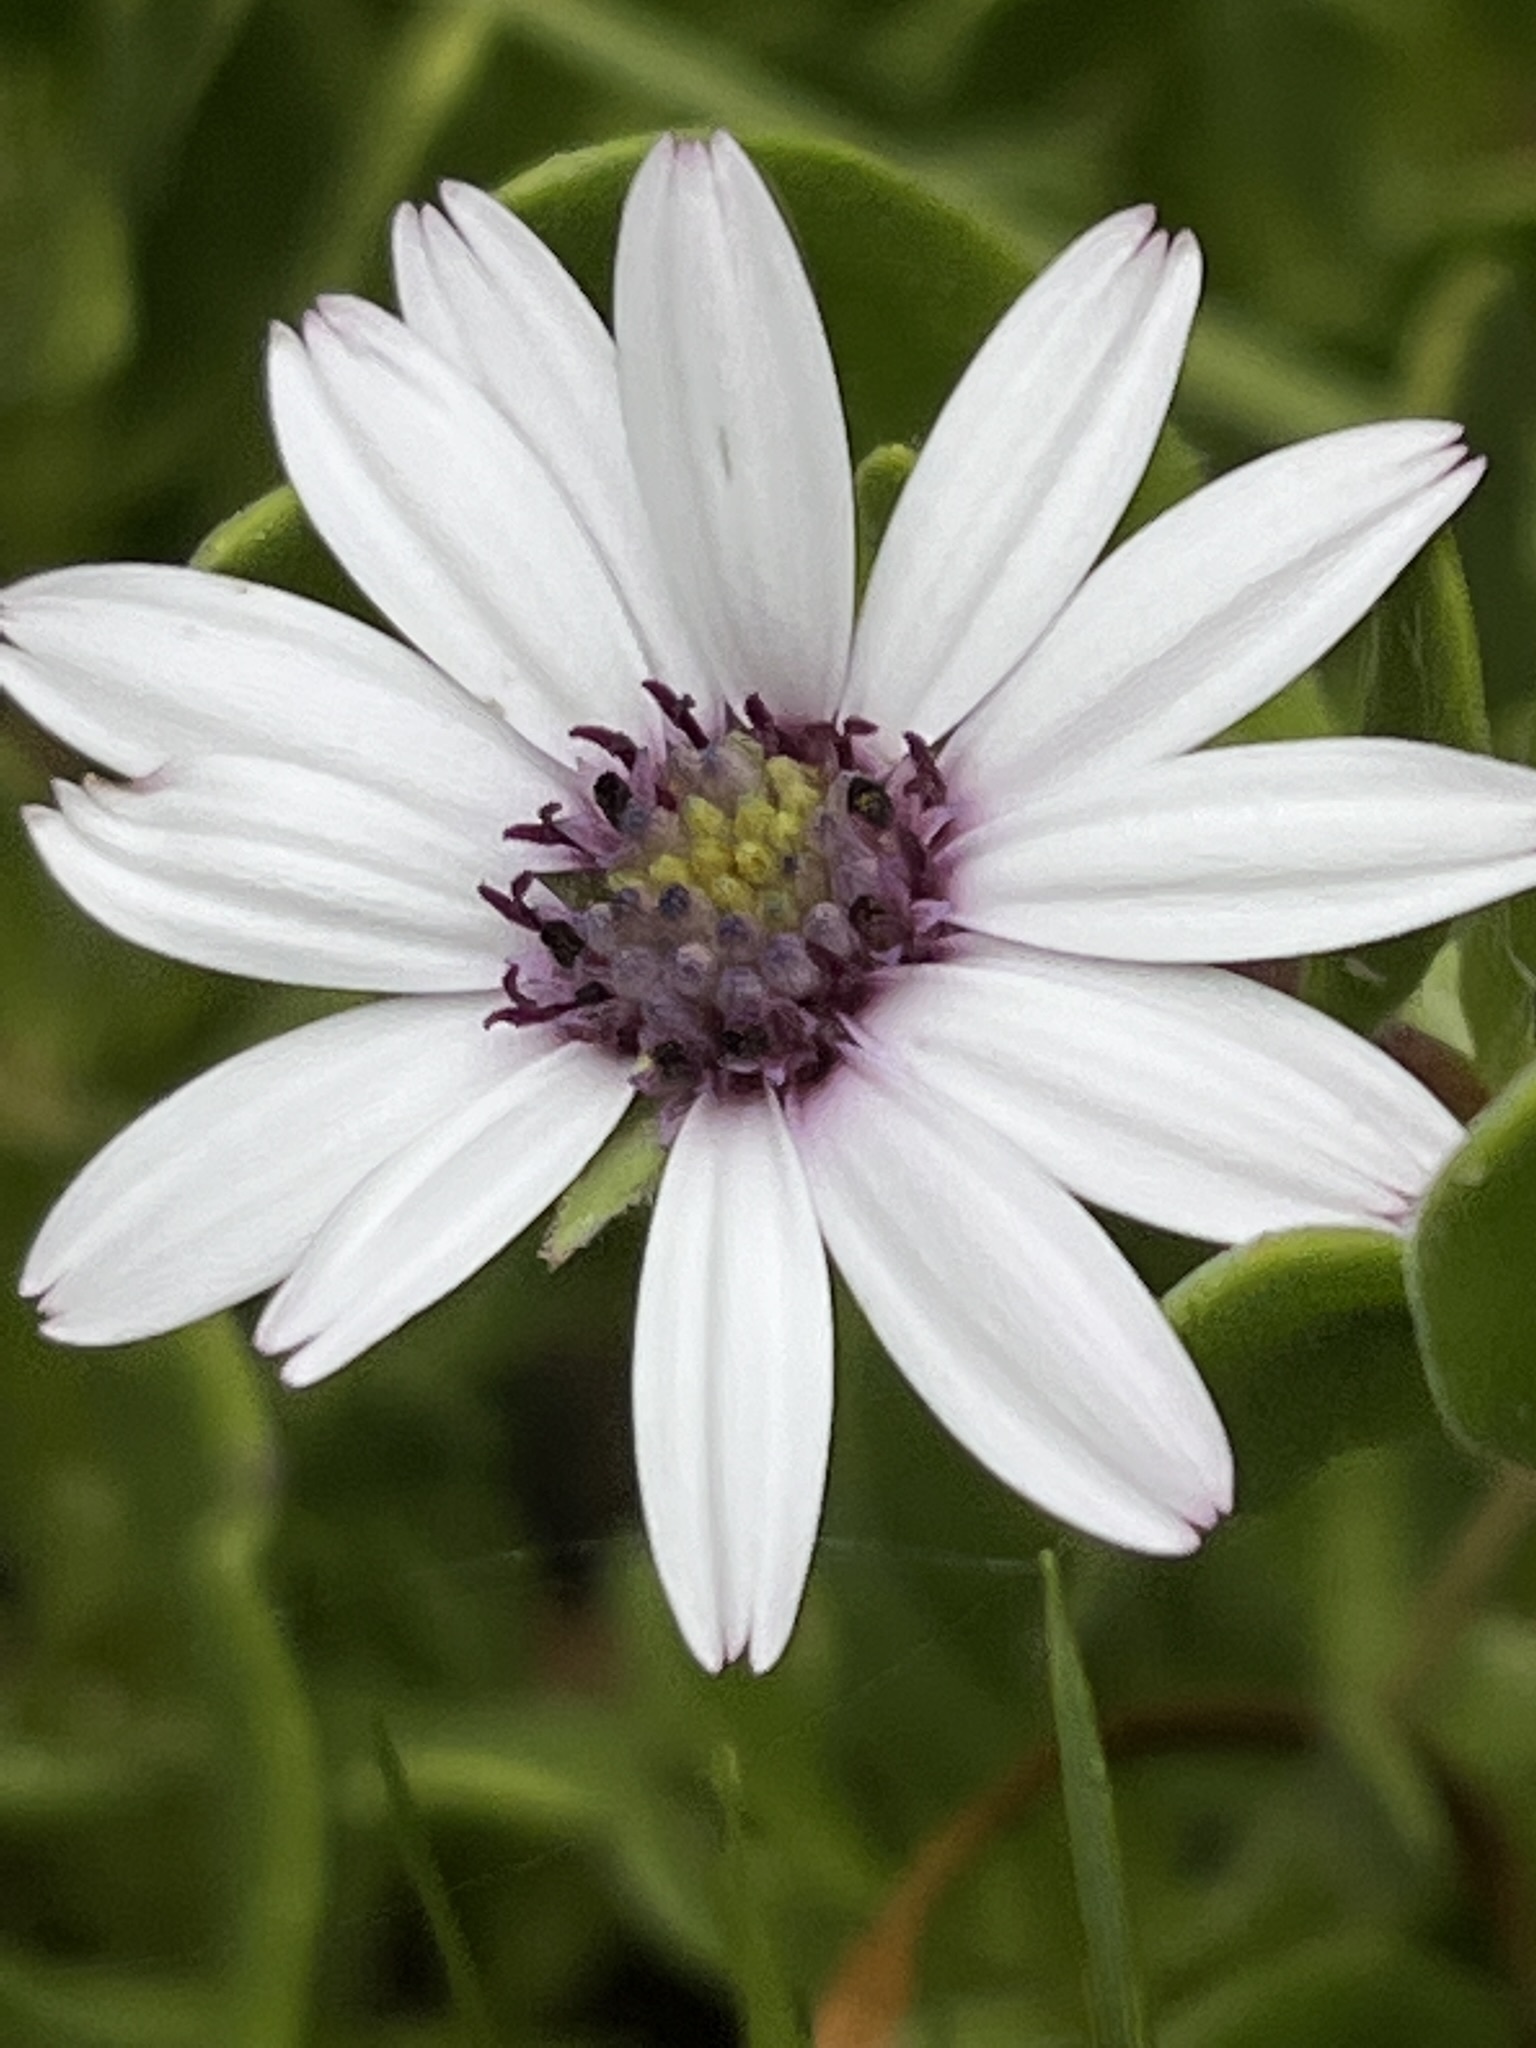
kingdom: Plantae
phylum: Tracheophyta
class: Magnoliopsida
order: Asterales
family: Asteraceae
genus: Dimorphotheca
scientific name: Dimorphotheca fruticosa
